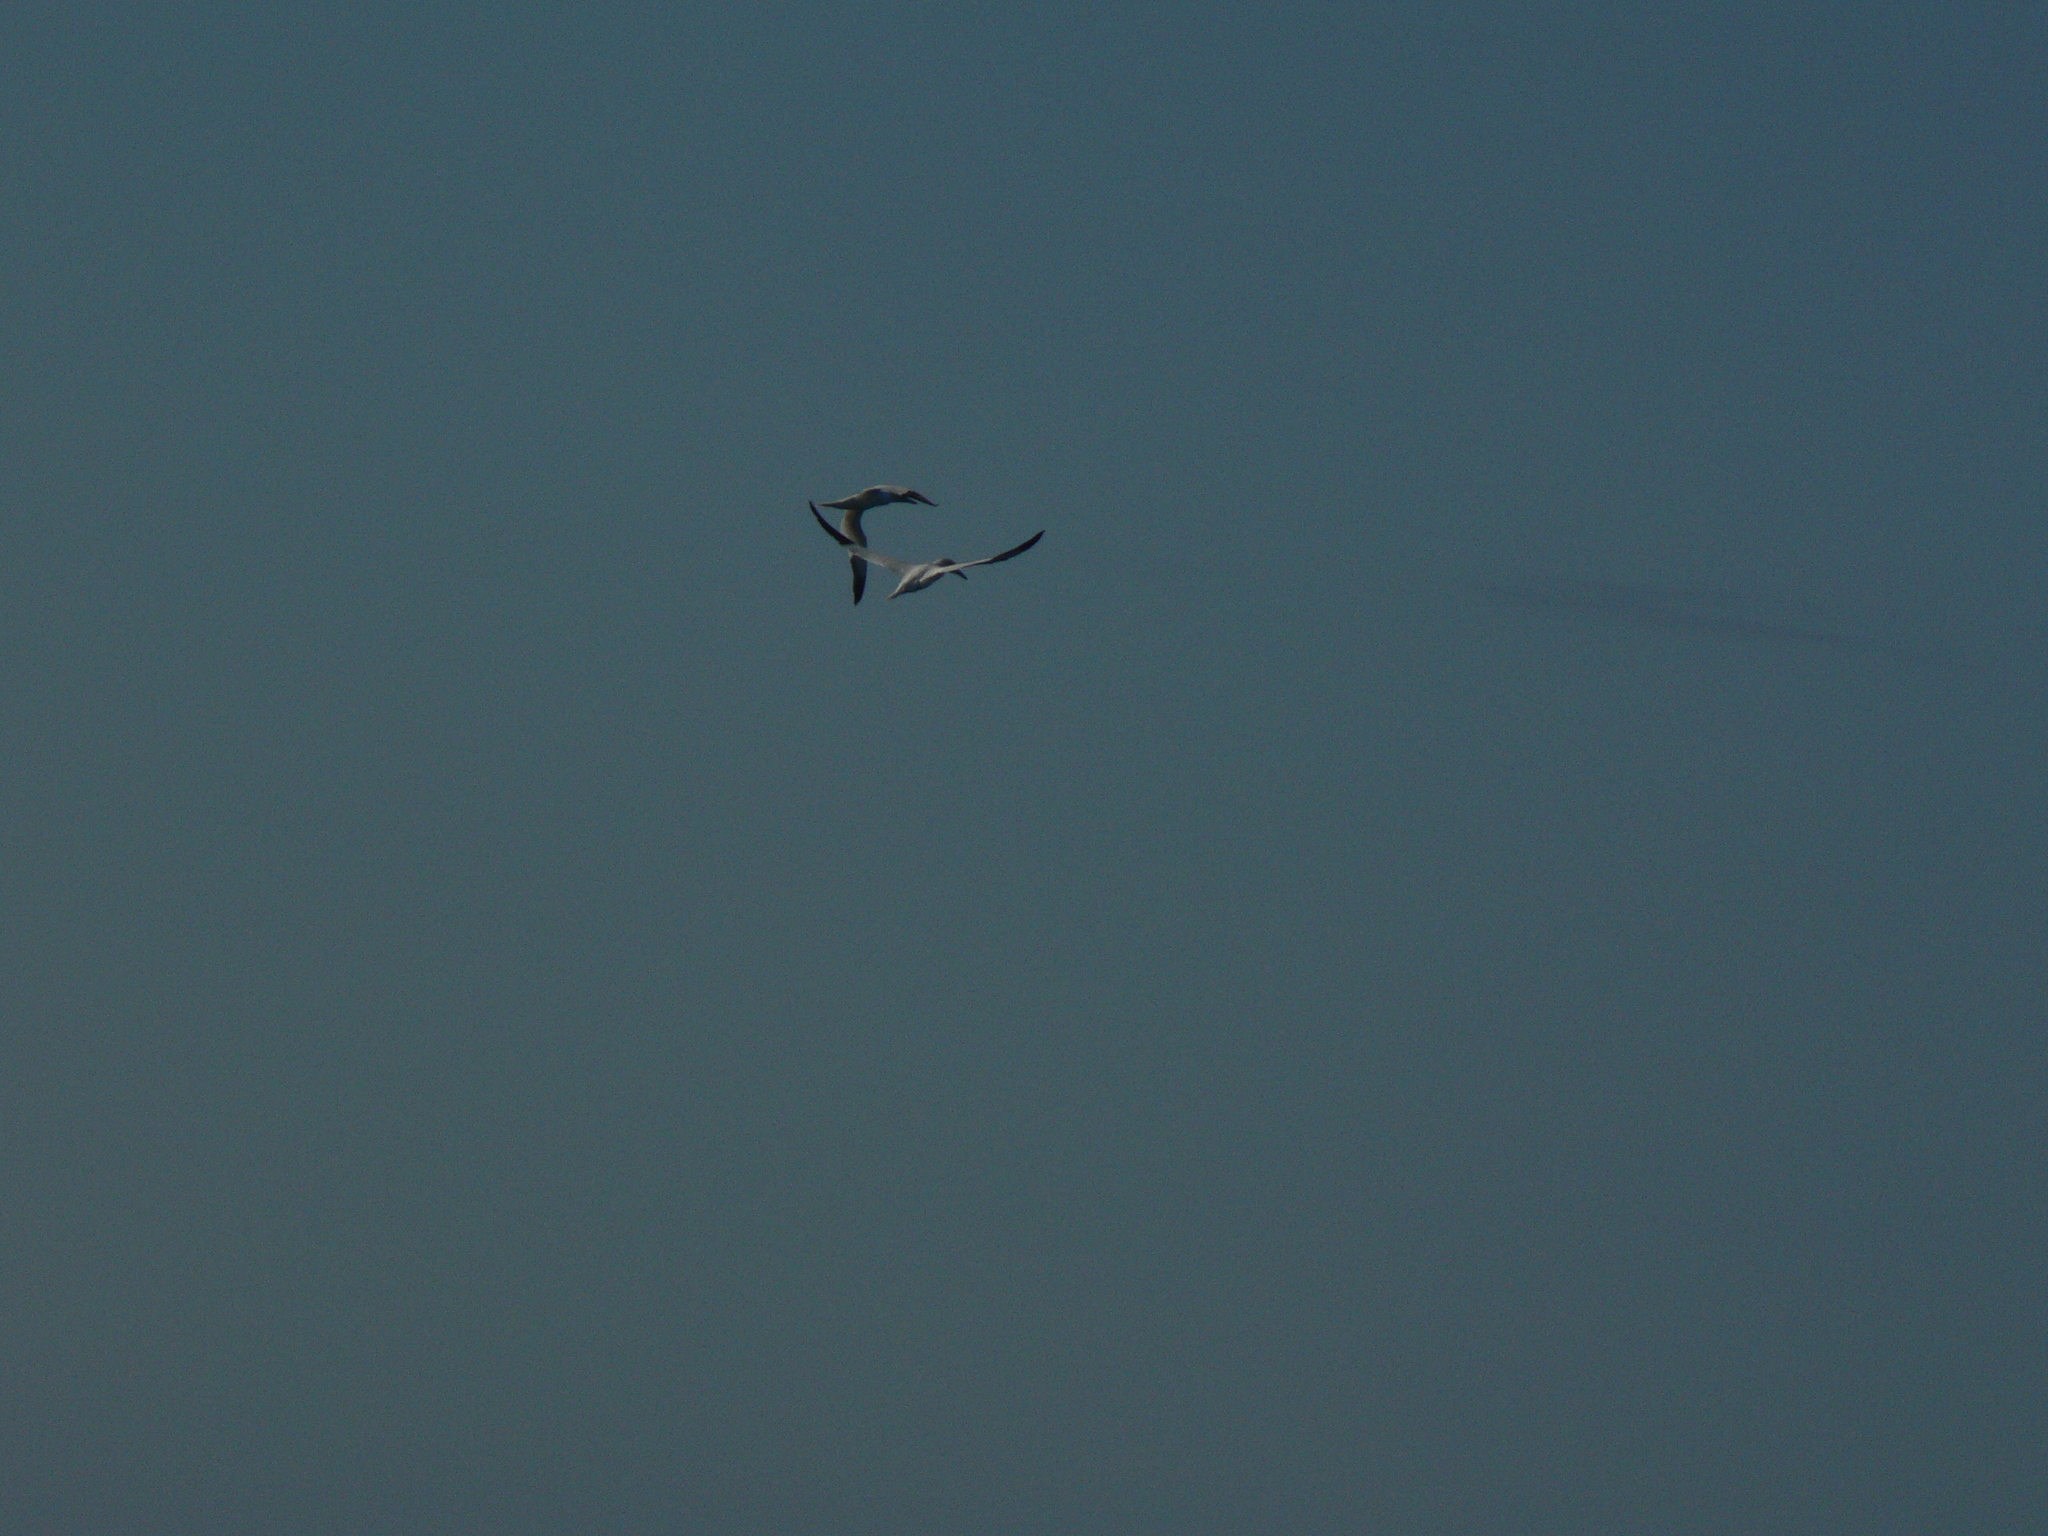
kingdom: Animalia
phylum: Chordata
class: Aves
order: Suliformes
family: Sulidae
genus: Morus
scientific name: Morus bassanus
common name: Northern gannet
